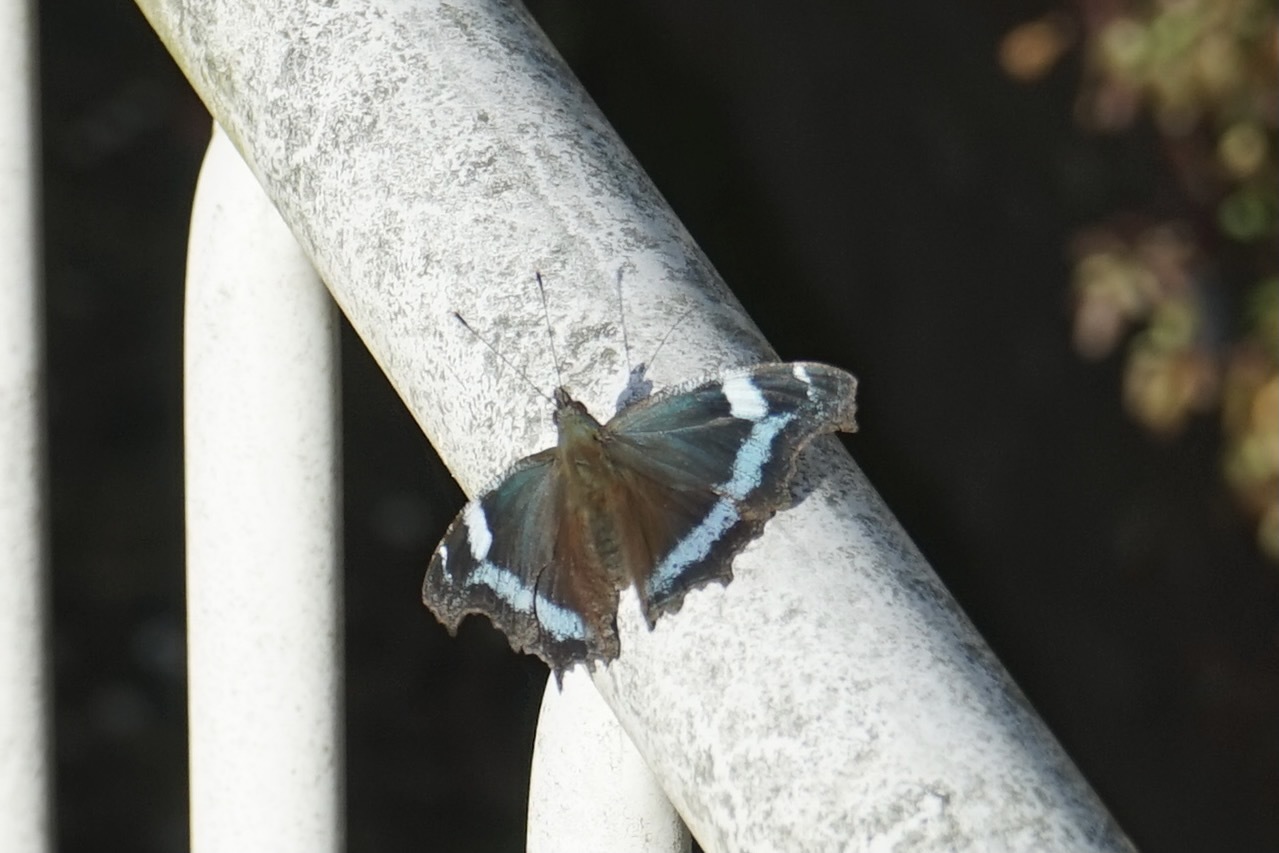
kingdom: Animalia
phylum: Arthropoda
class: Insecta
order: Lepidoptera
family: Nymphalidae
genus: Vanessa
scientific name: Vanessa Kaniska canace
